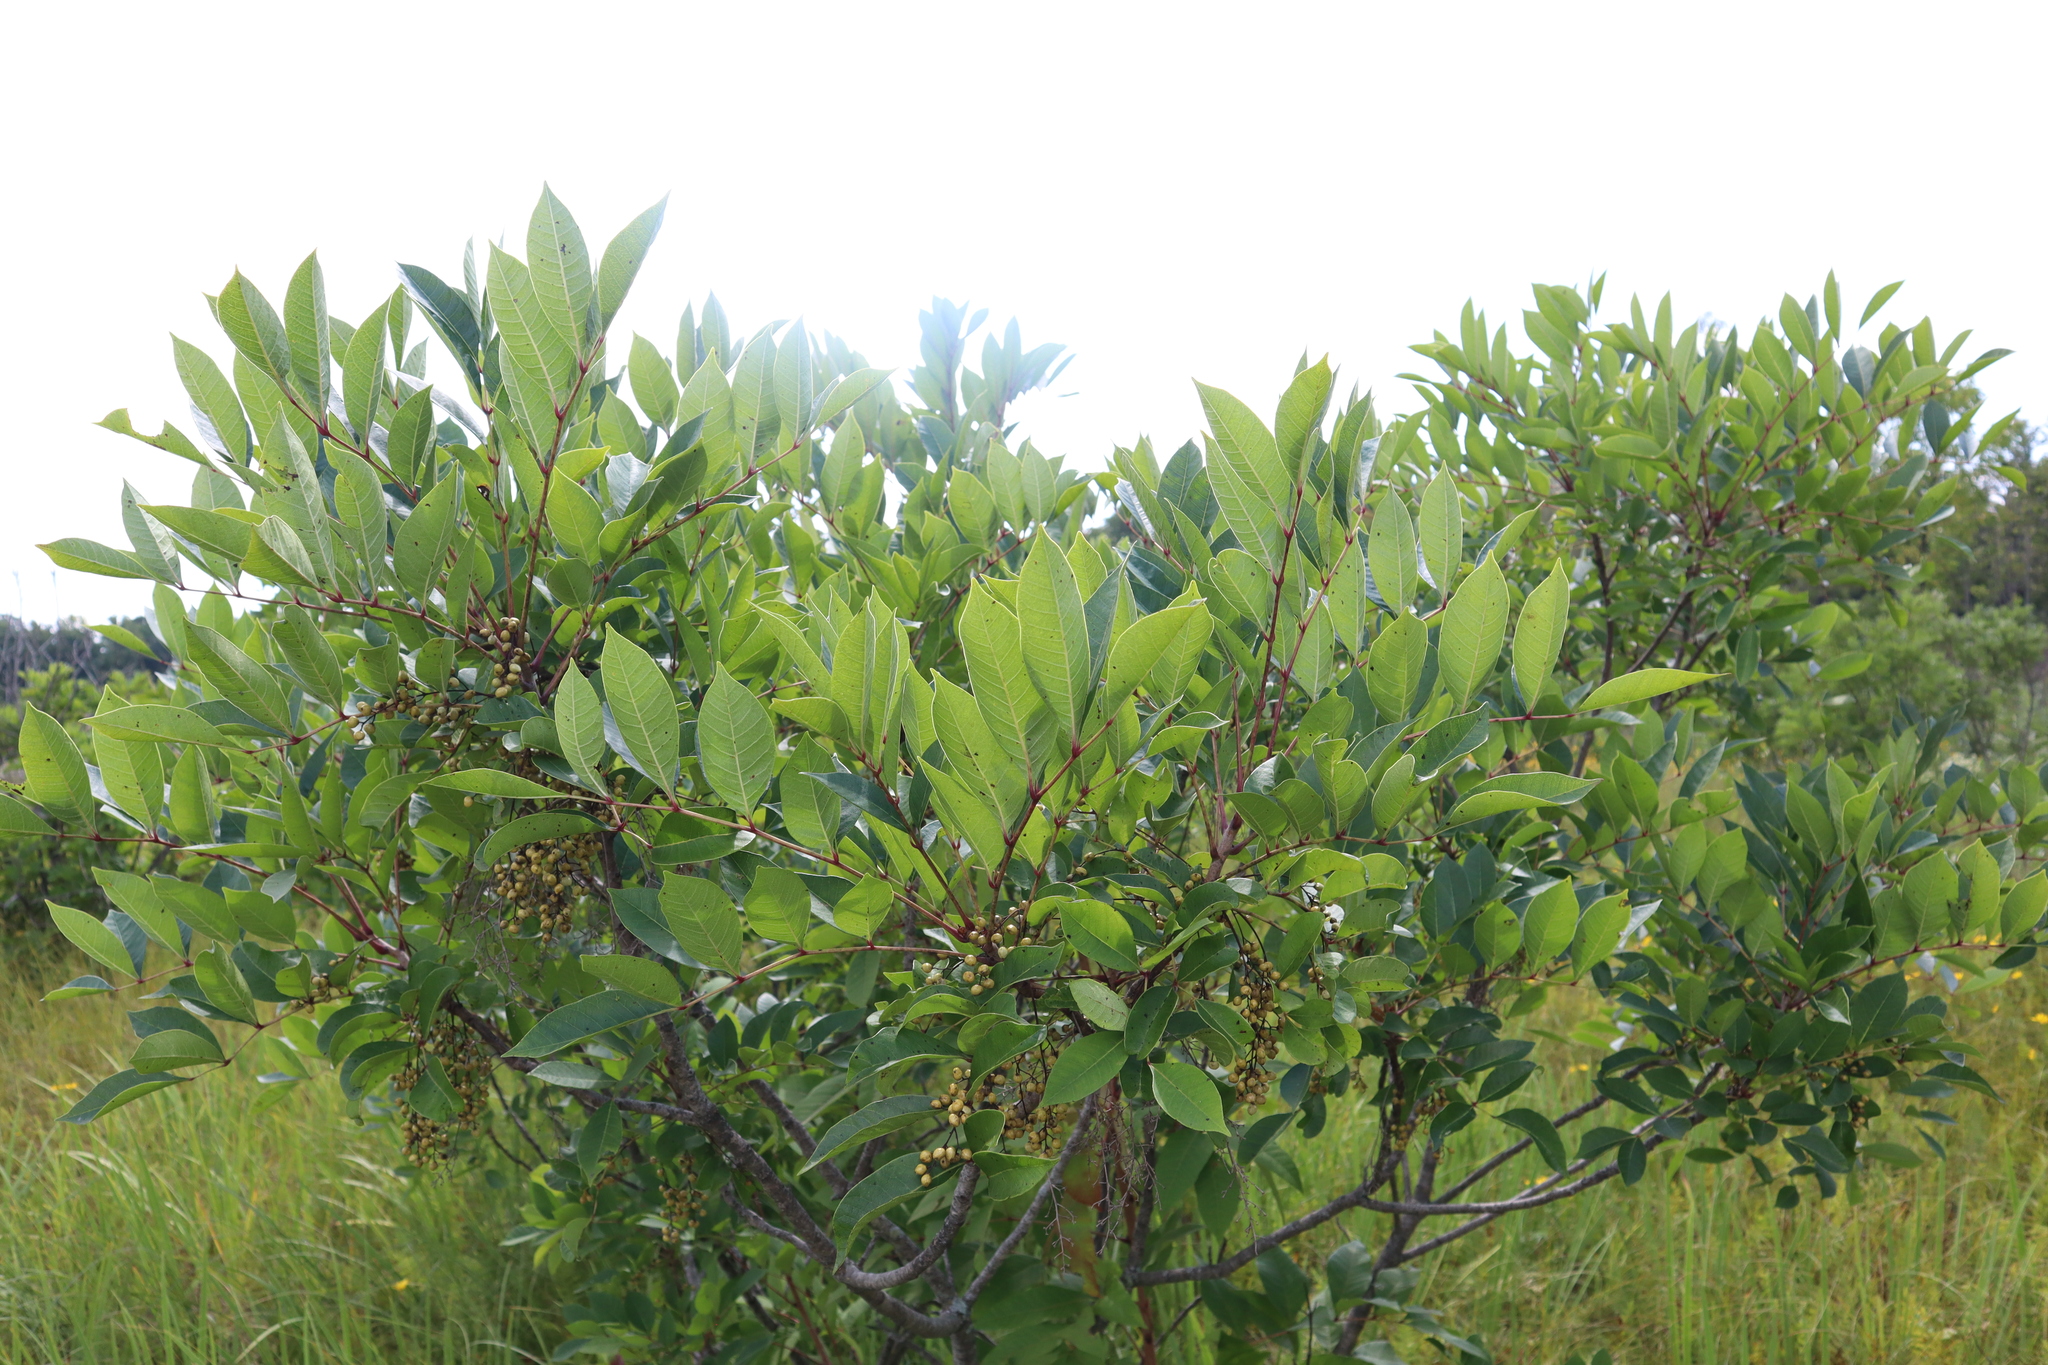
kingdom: Plantae
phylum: Tracheophyta
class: Magnoliopsida
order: Sapindales
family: Anacardiaceae
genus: Toxicodendron
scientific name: Toxicodendron vernix
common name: Poison sumac
